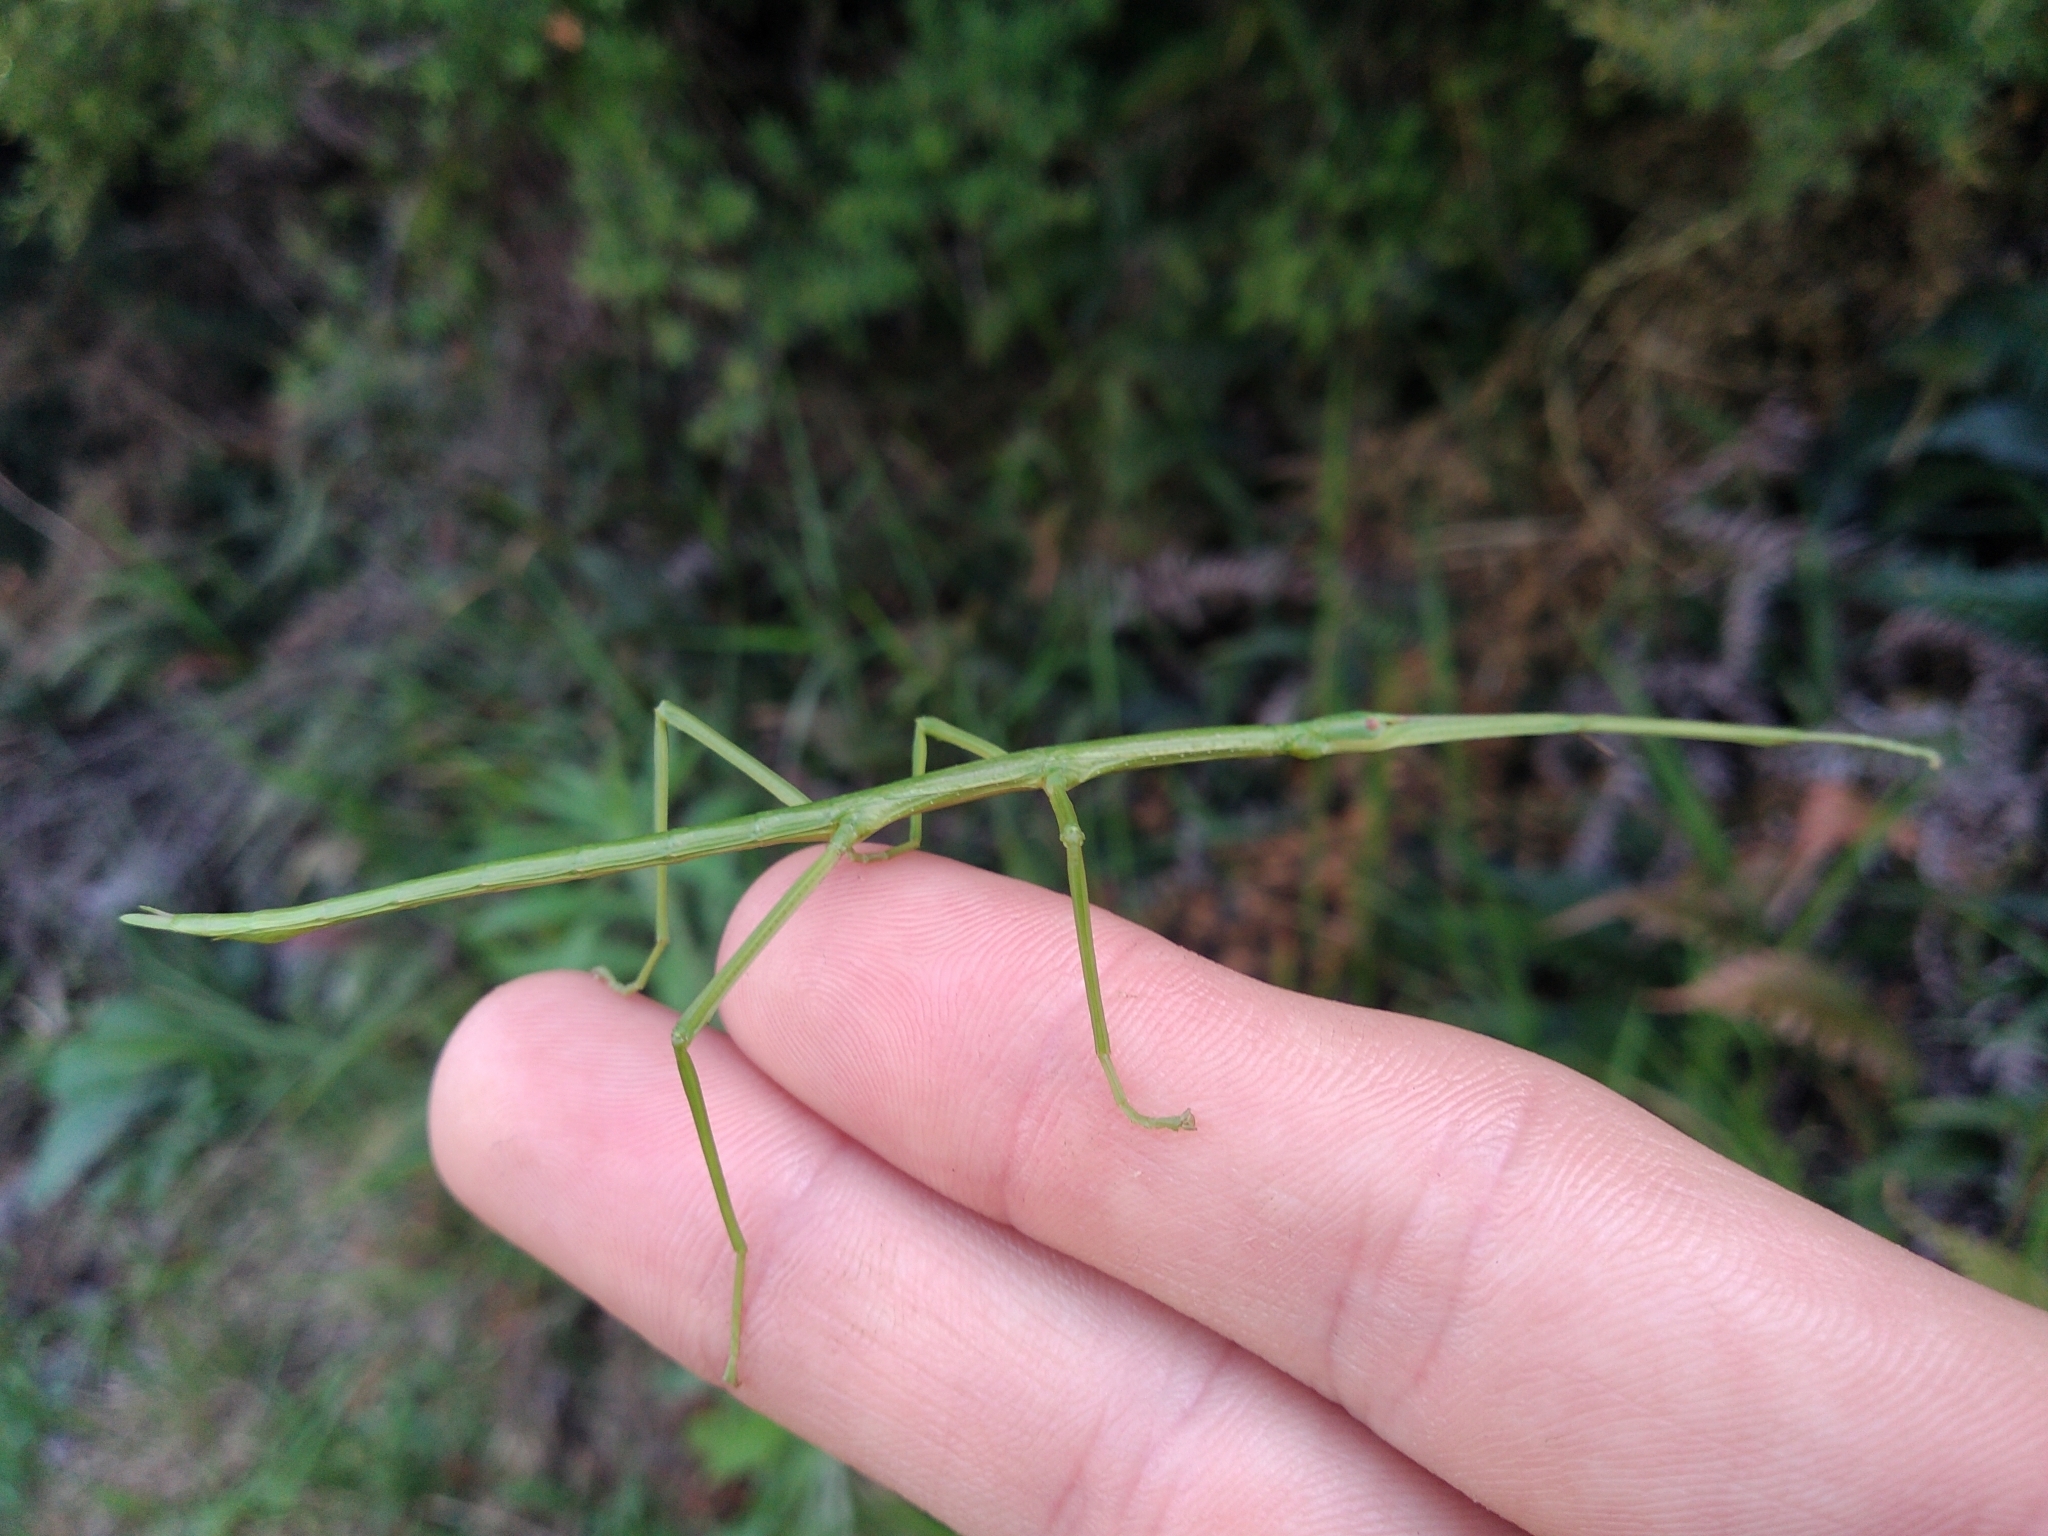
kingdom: Animalia
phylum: Arthropoda
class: Insecta
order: Phasmida
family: Phasmatidae
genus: Clitarchus
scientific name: Clitarchus hookeri
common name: Smooth stick insect
